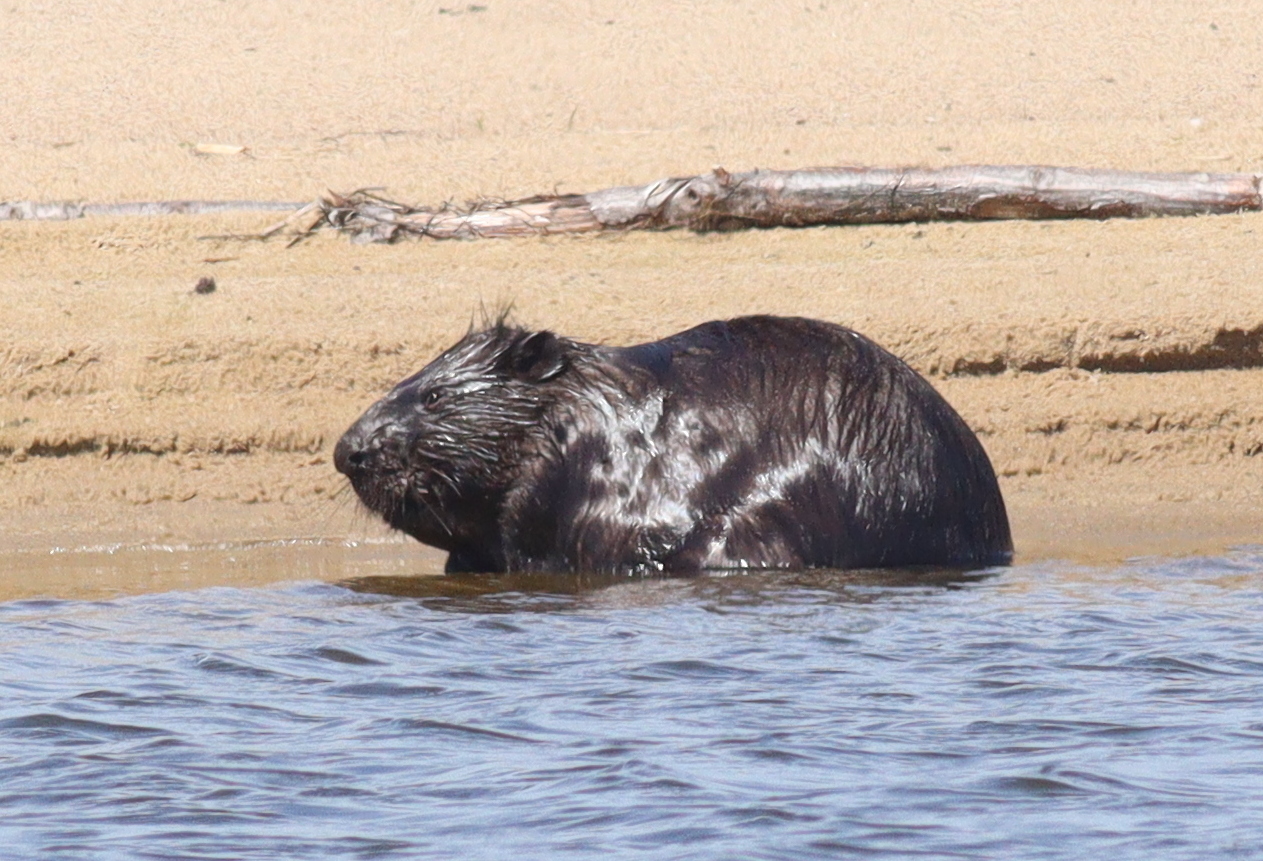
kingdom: Animalia
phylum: Chordata
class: Mammalia
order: Rodentia
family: Castoridae
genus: Castor
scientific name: Castor fiber
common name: Eurasian beaver
